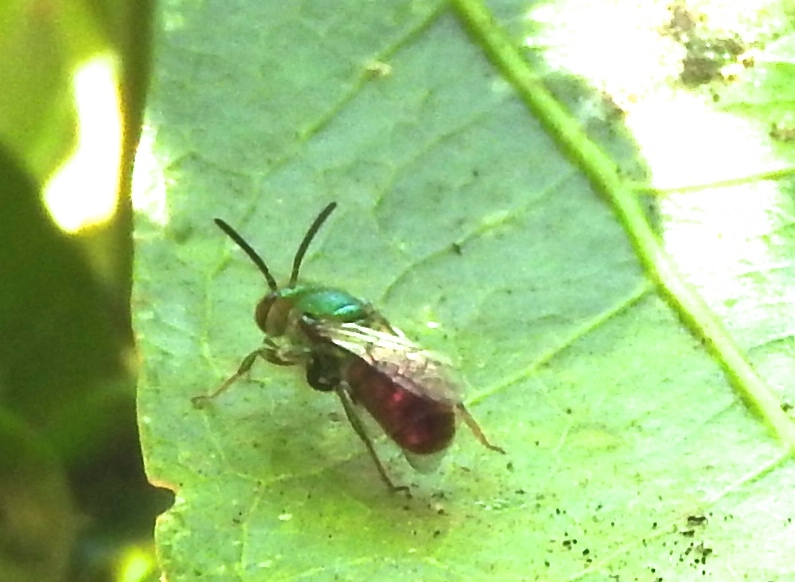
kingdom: Animalia
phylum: Arthropoda
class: Insecta
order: Hymenoptera
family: Halictidae
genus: Augochloropsis
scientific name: Augochloropsis
